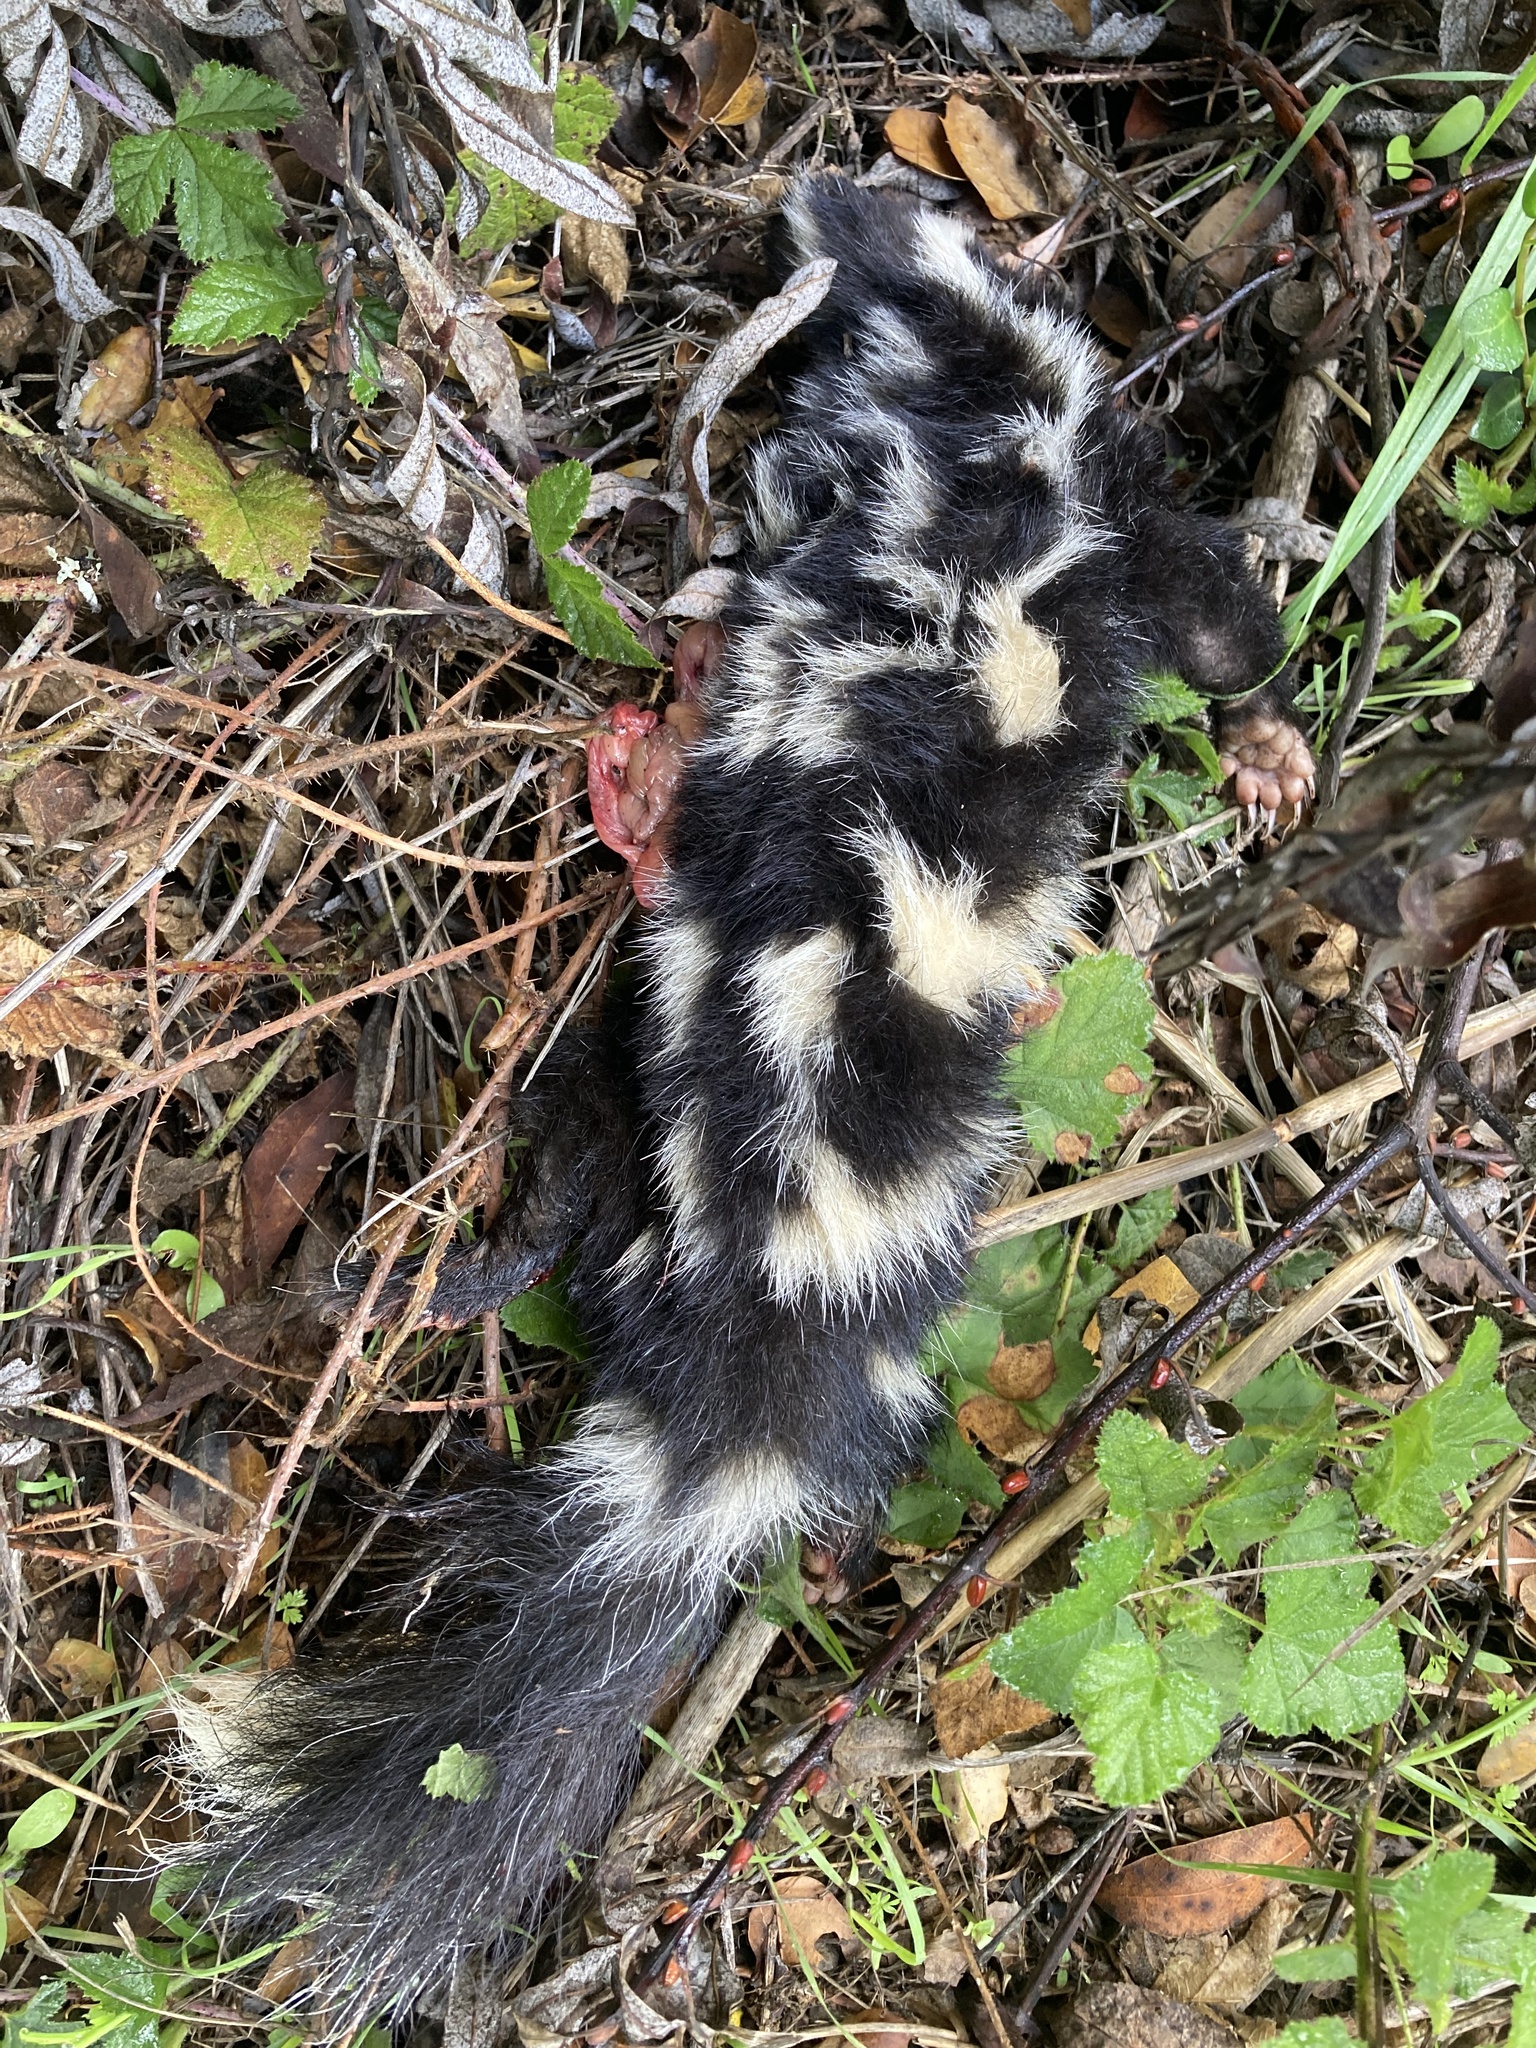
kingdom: Animalia
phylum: Chordata
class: Mammalia
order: Carnivora
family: Mephitidae
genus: Spilogale
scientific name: Spilogale gracilis
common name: Western spotted skunk
